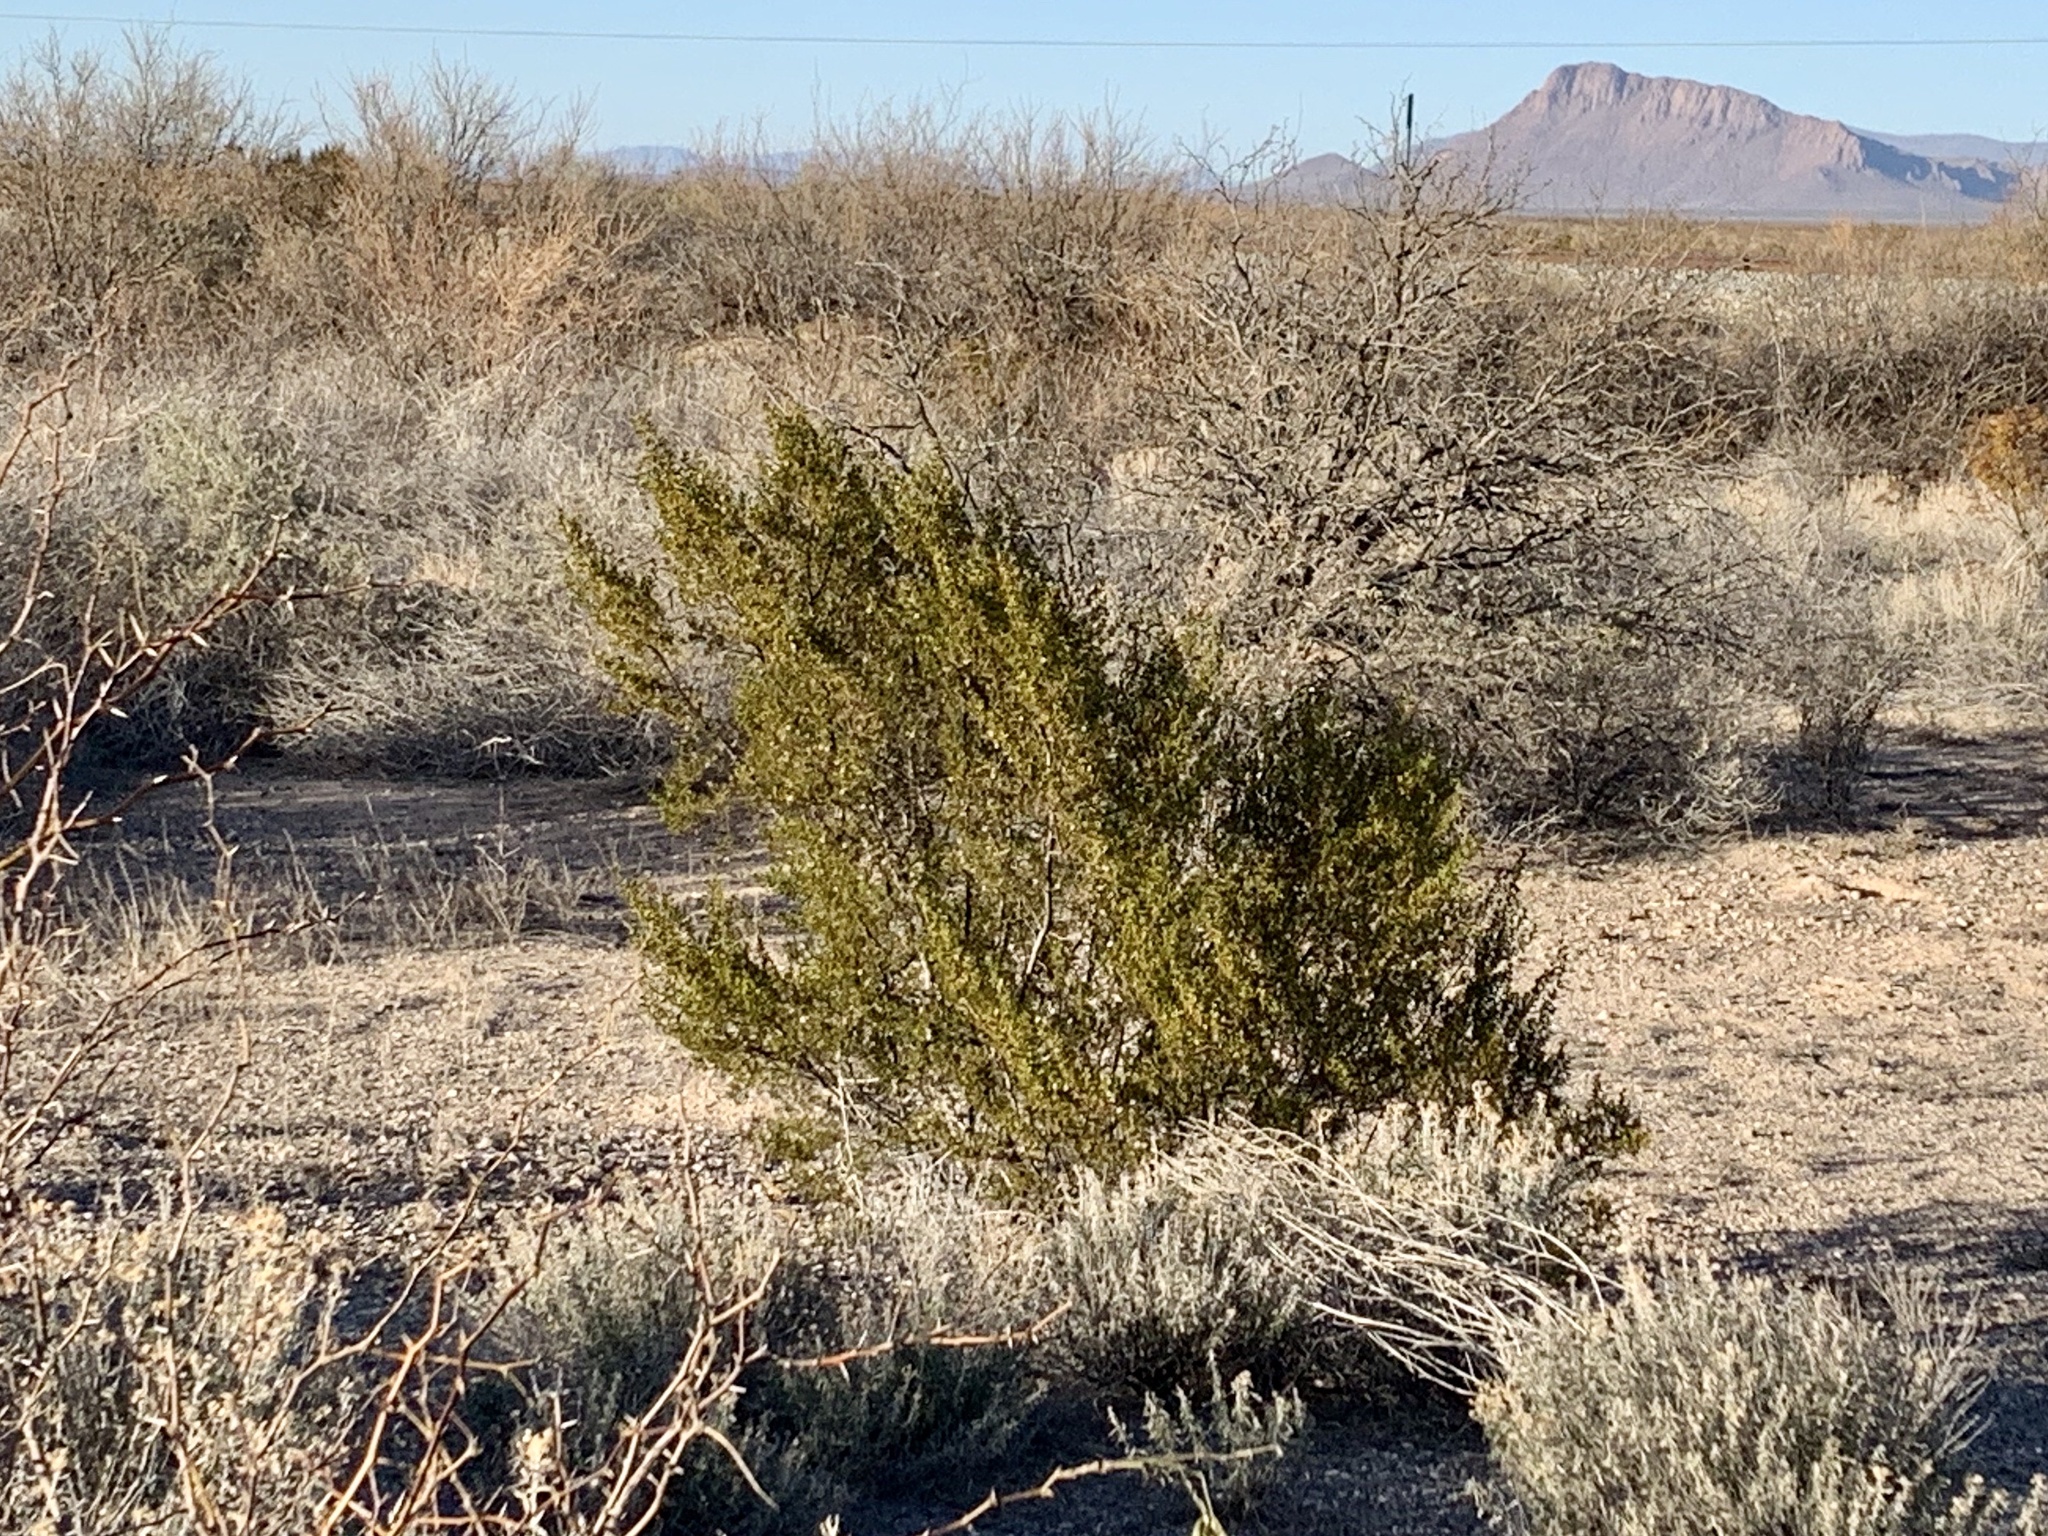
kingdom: Plantae
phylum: Tracheophyta
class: Magnoliopsida
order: Zygophyllales
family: Zygophyllaceae
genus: Larrea
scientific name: Larrea tridentata
